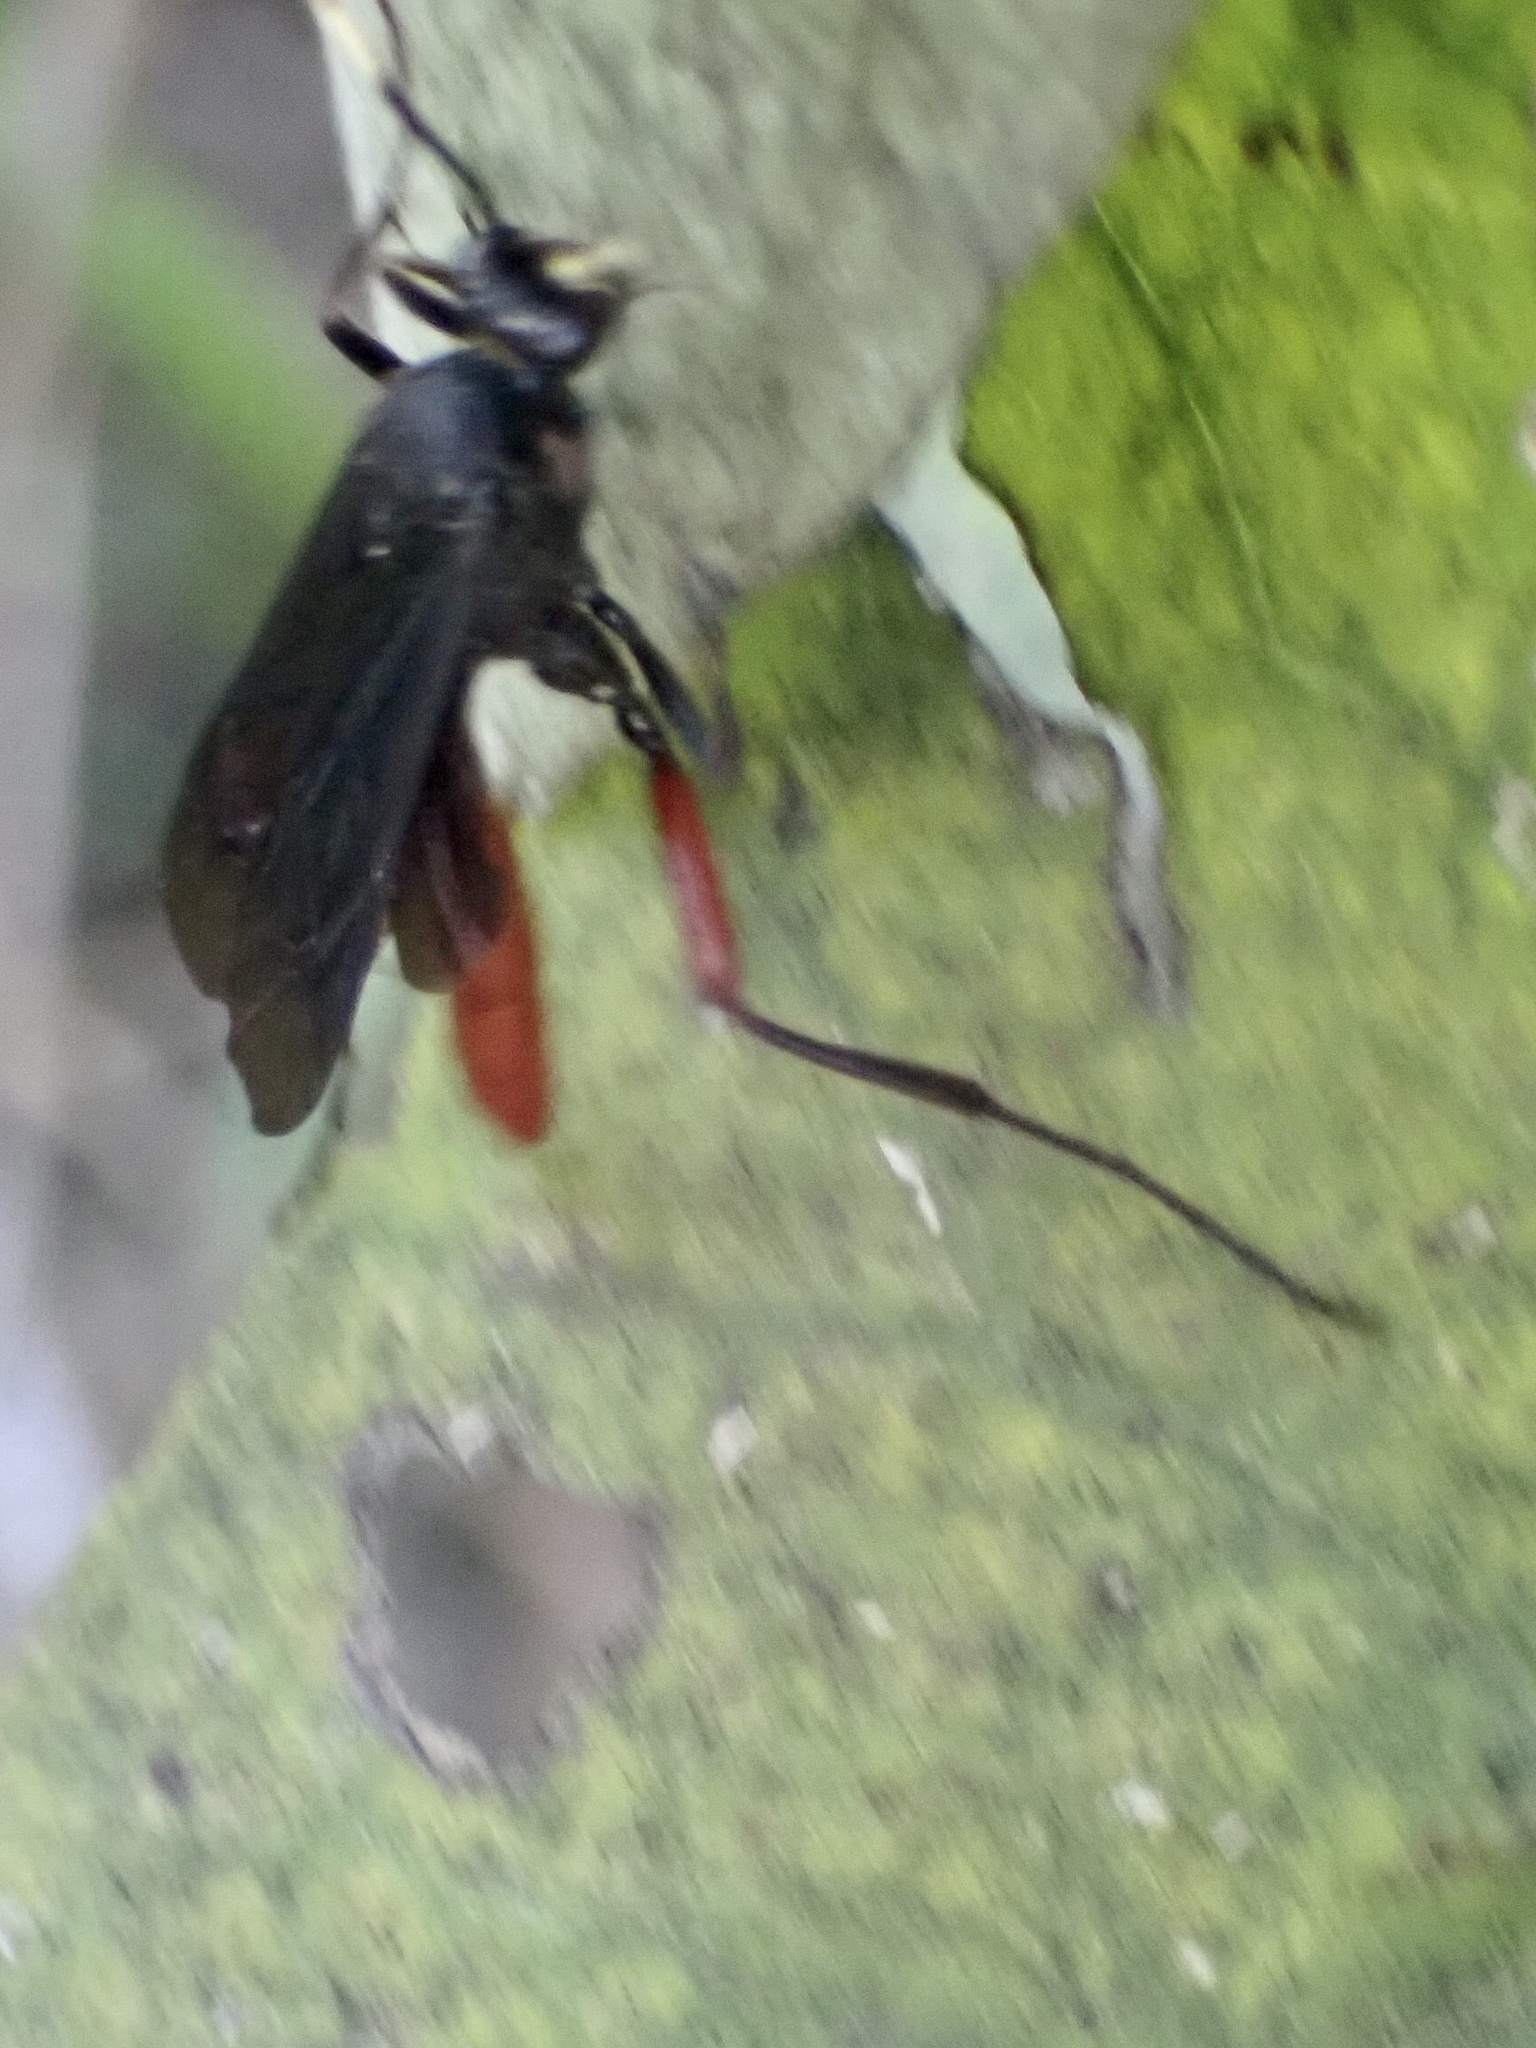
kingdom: Animalia
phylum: Arthropoda
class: Insecta
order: Hymenoptera
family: Ichneumonidae
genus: Limonethe
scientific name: Limonethe maurator
